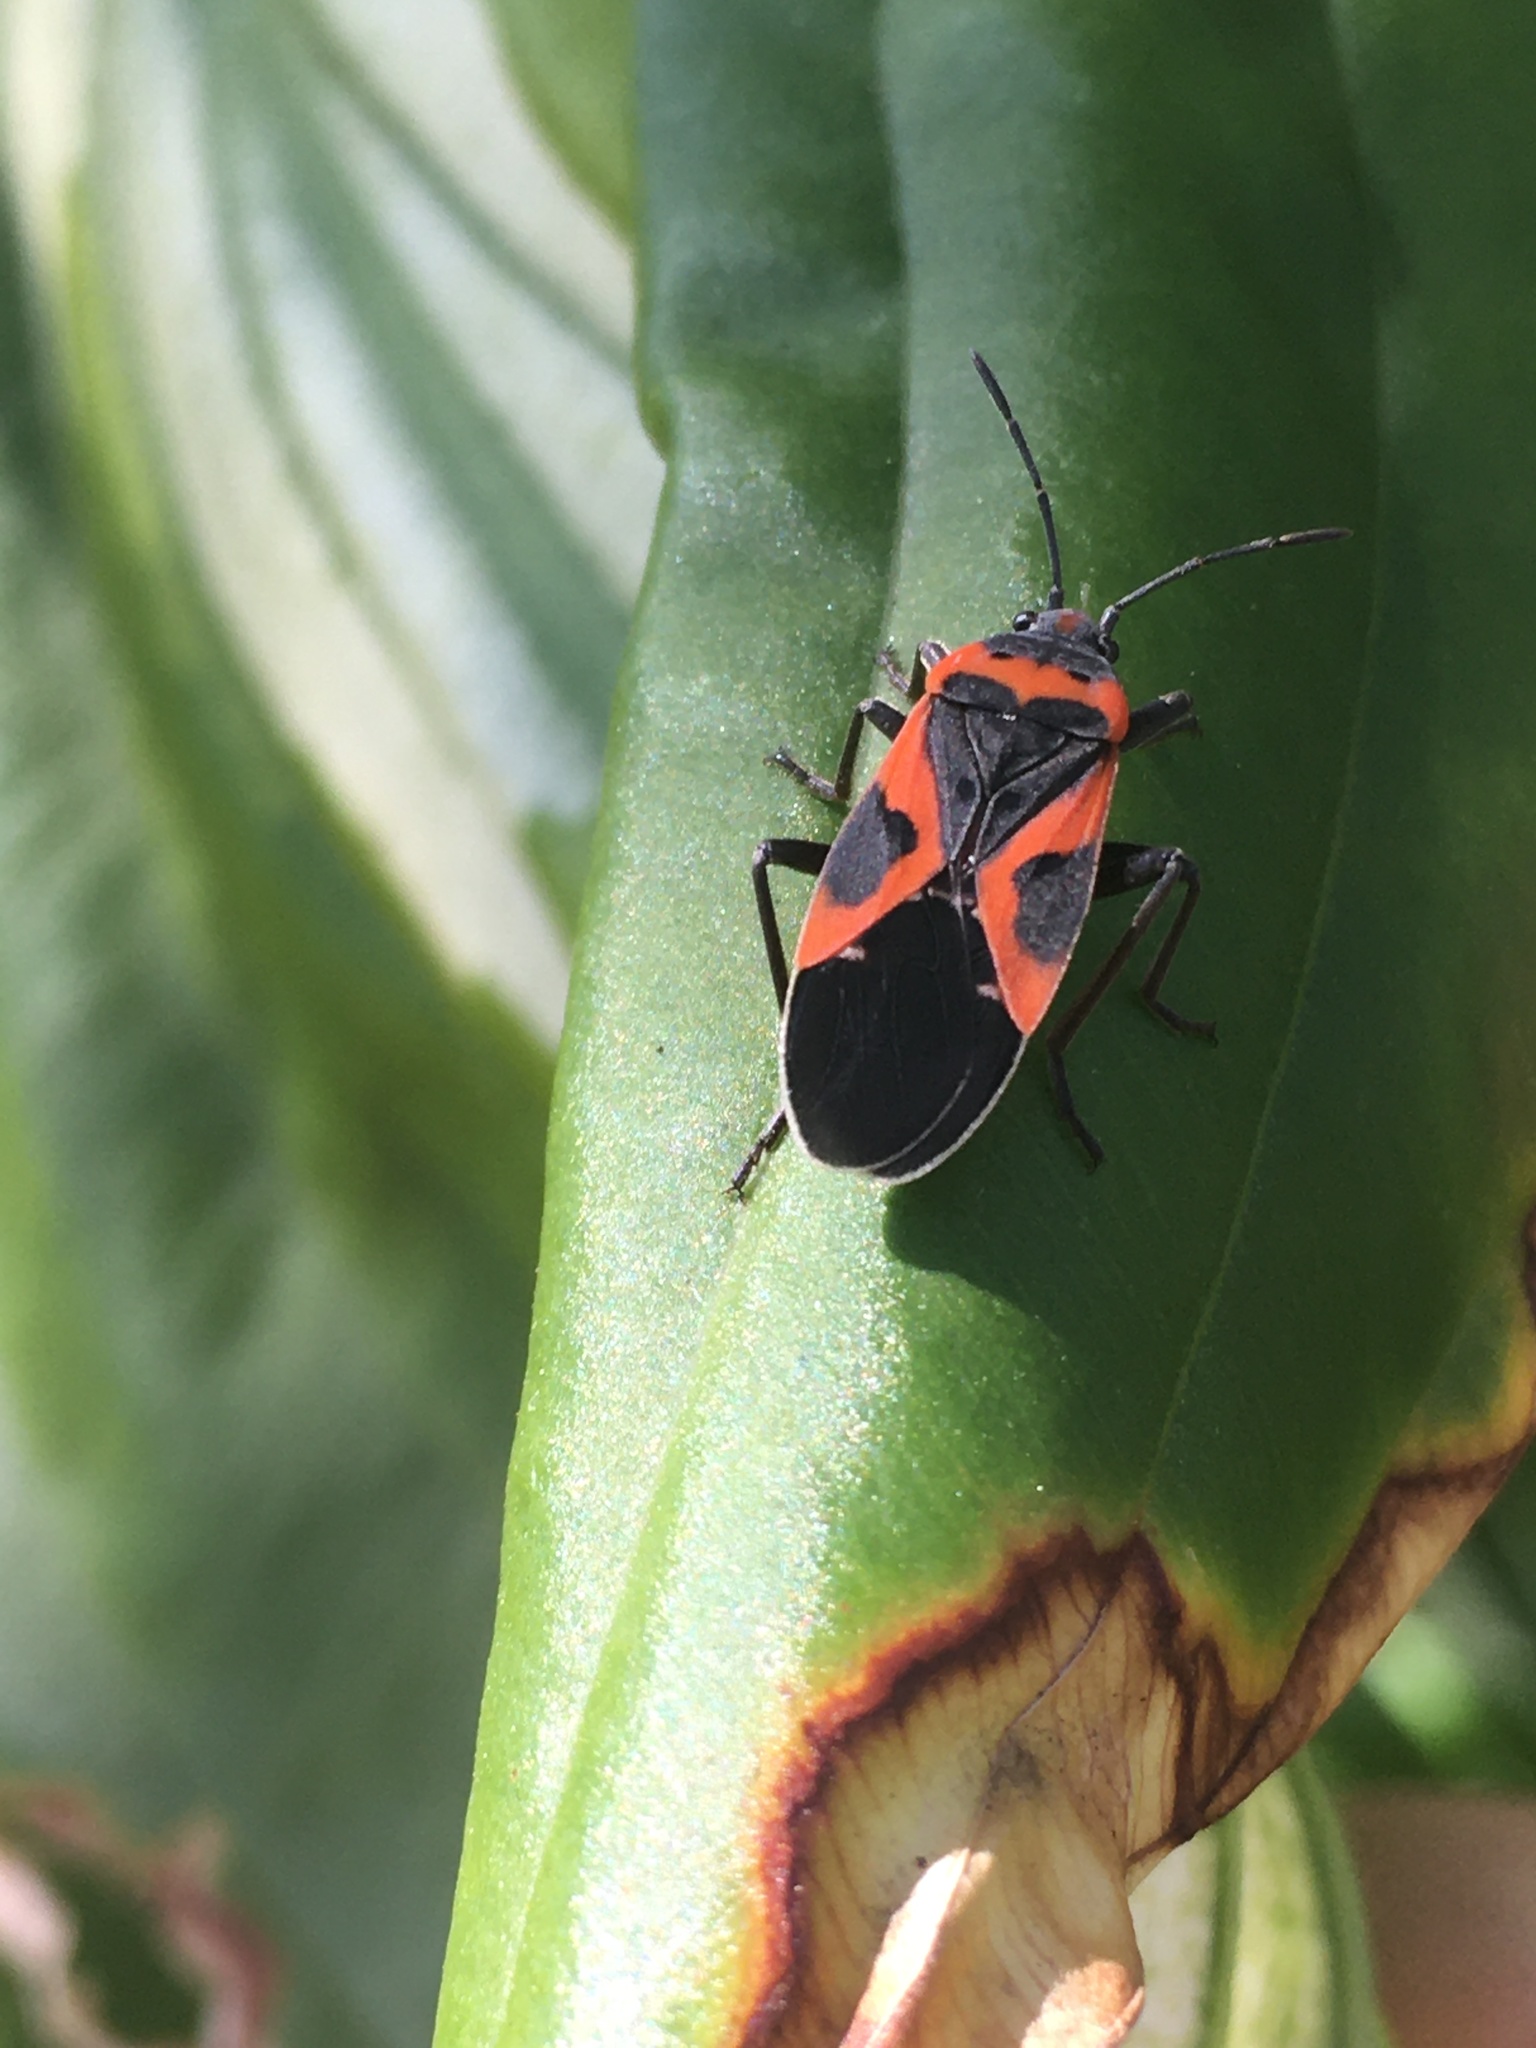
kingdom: Animalia
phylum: Arthropoda
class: Insecta
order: Hemiptera
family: Lygaeidae
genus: Lygaeus
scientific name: Lygaeus kalmii
